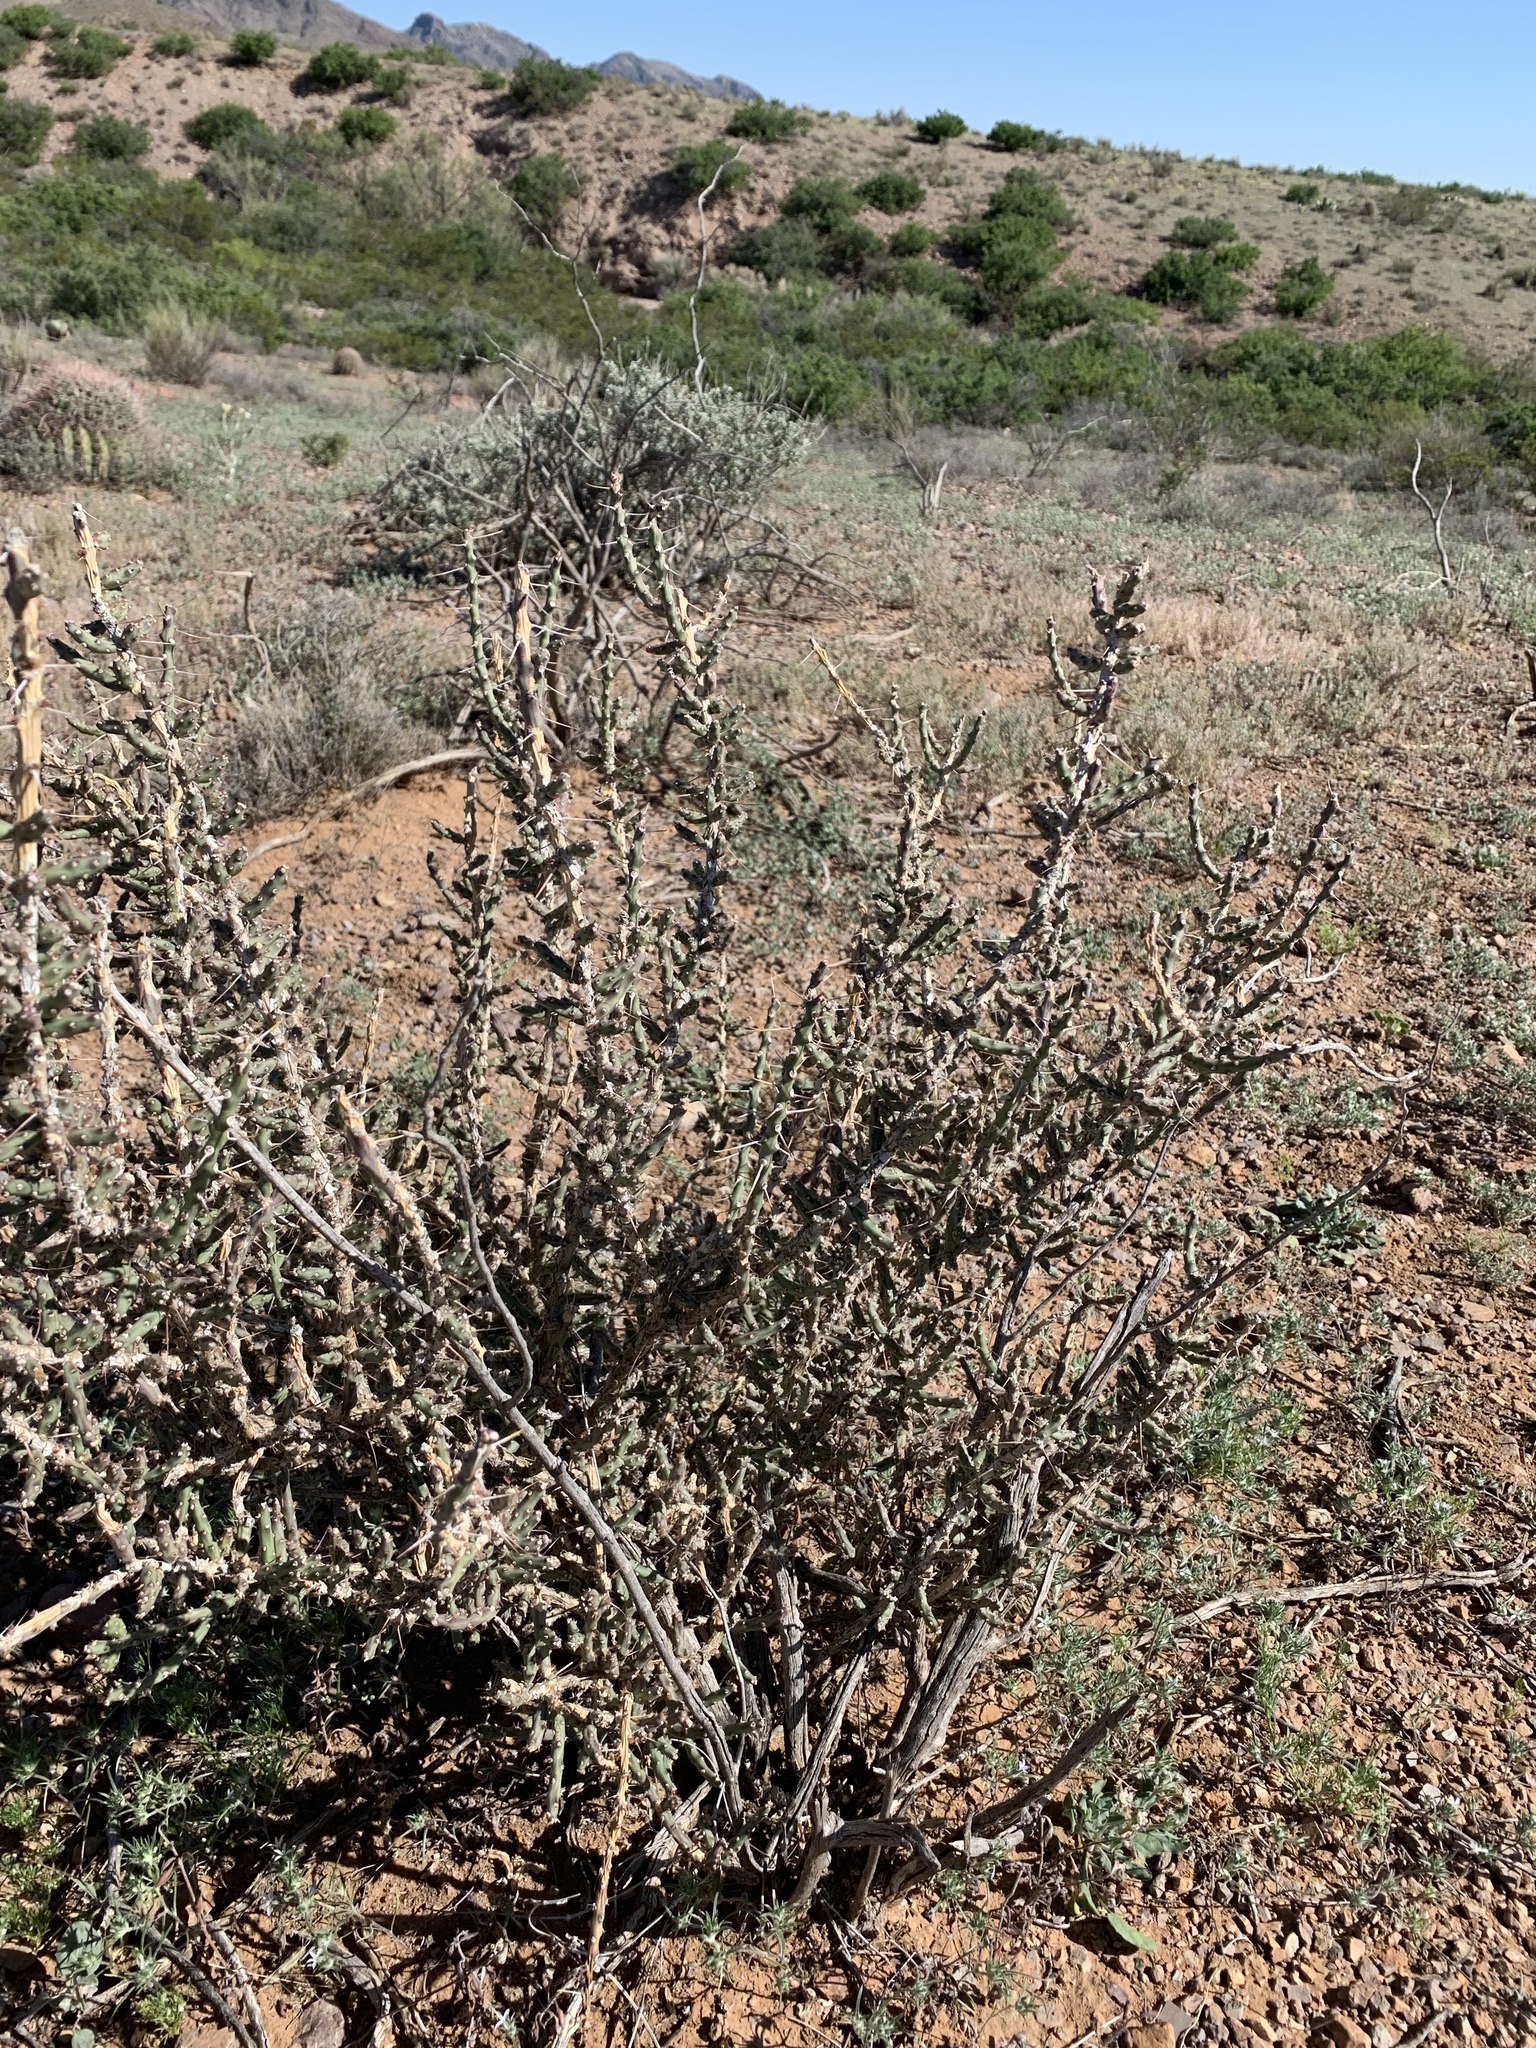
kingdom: Plantae
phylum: Tracheophyta
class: Magnoliopsida
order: Caryophyllales
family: Cactaceae
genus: Cylindropuntia
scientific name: Cylindropuntia leptocaulis
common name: Christmas cactus
